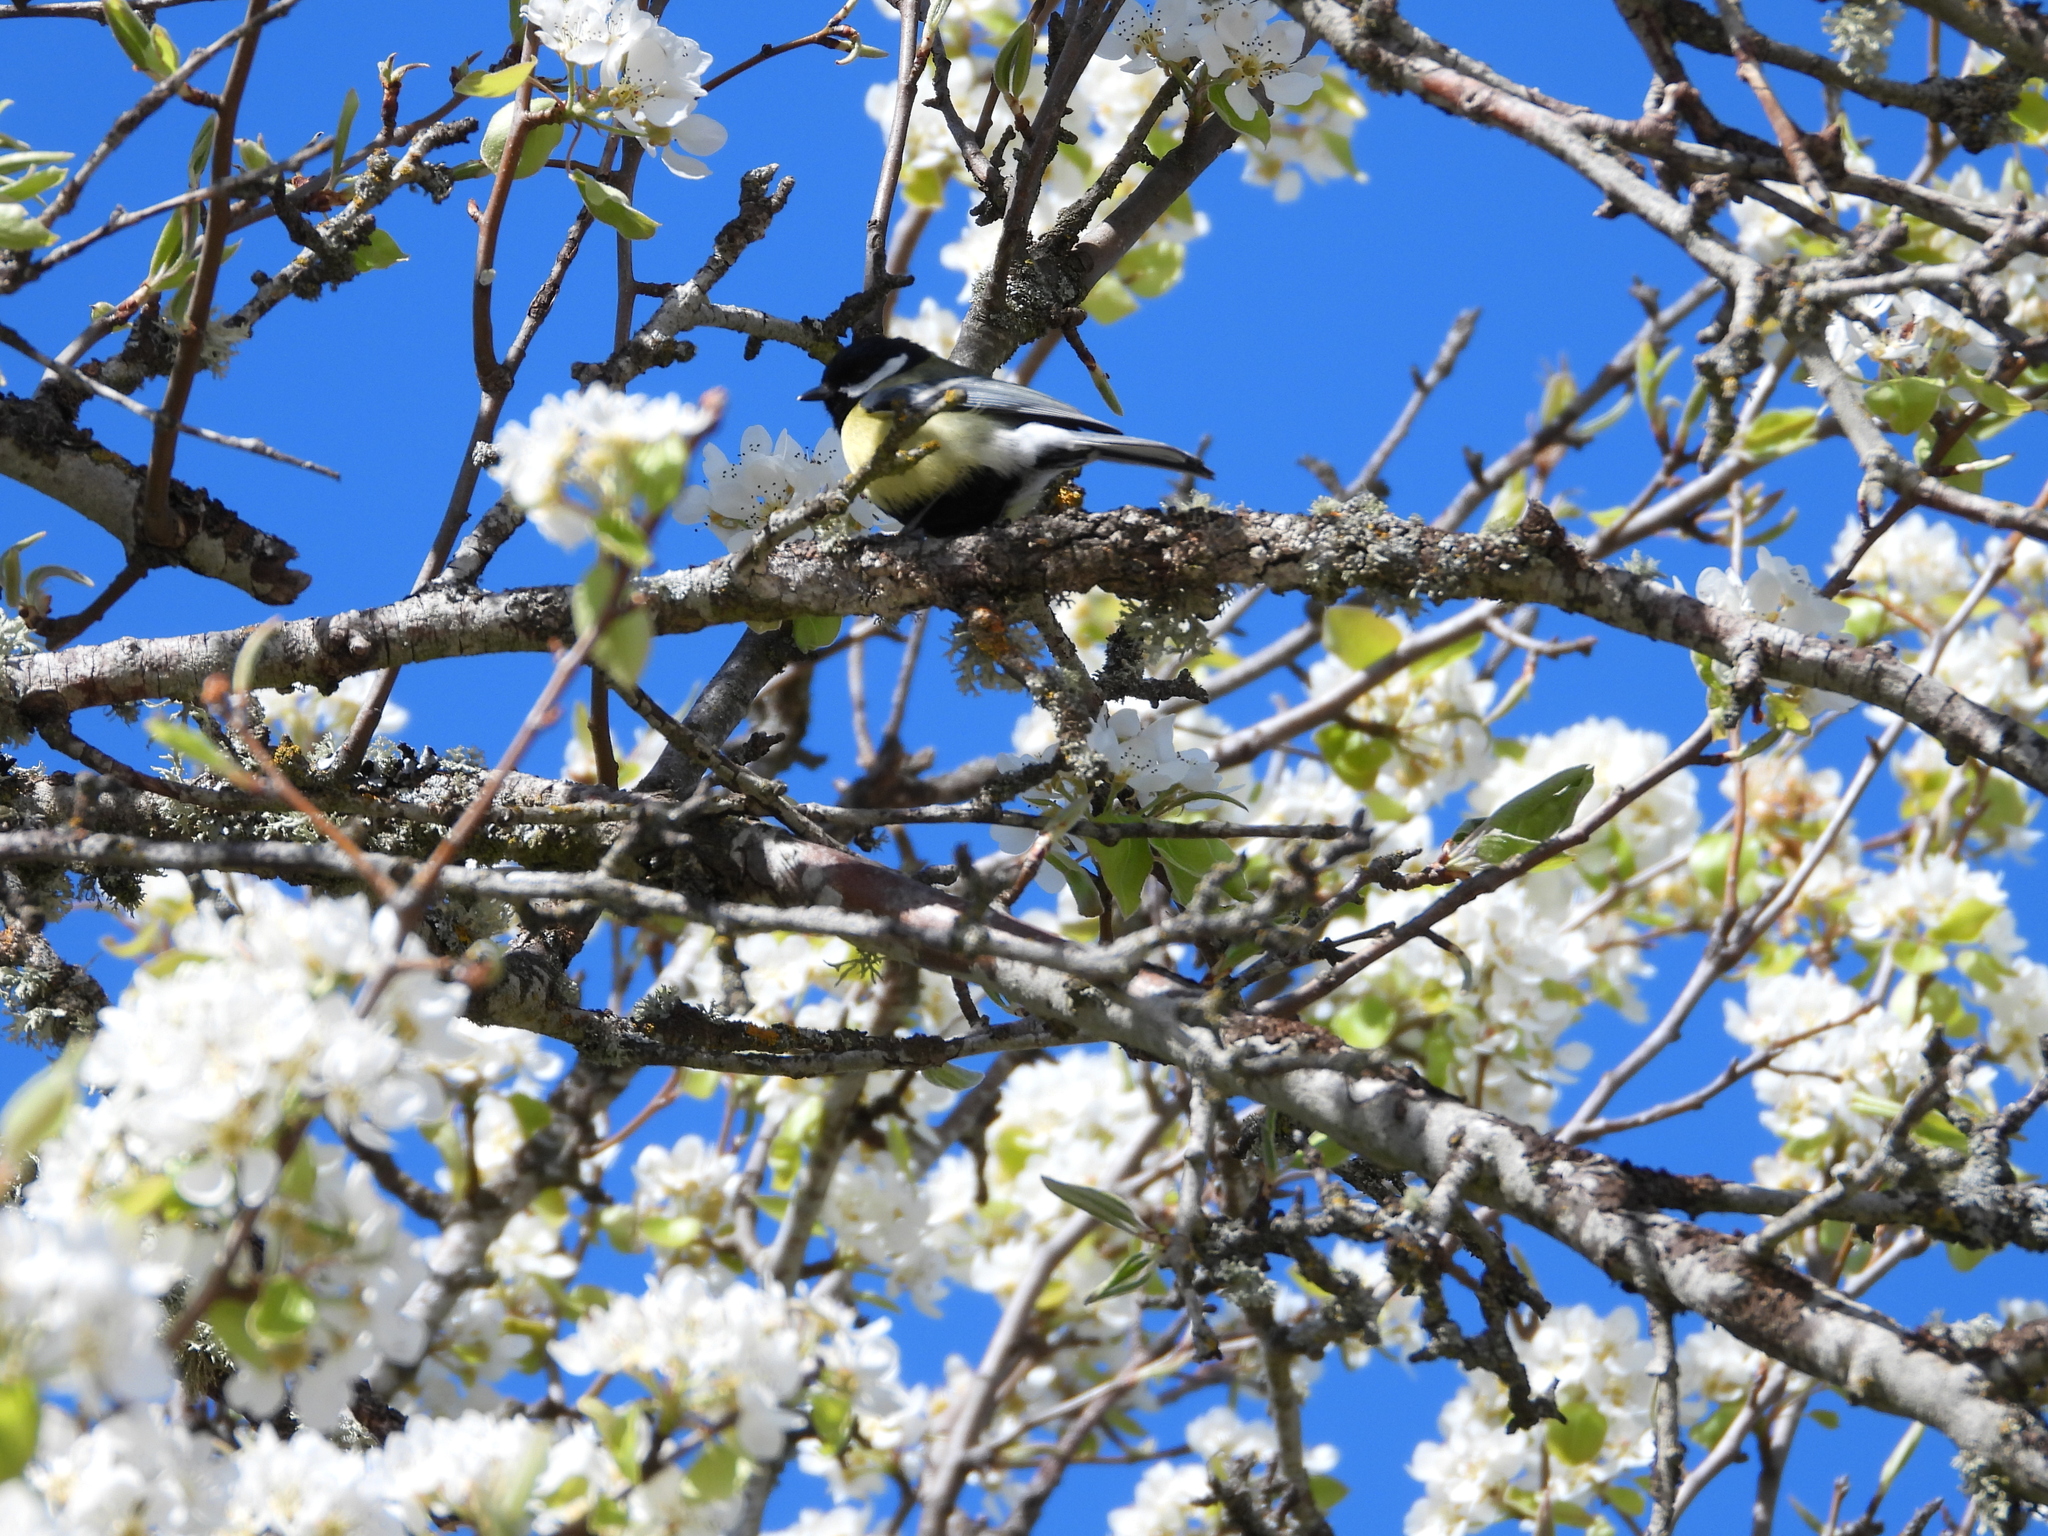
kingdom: Animalia
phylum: Chordata
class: Aves
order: Passeriformes
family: Paridae
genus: Parus
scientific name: Parus major
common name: Great tit
